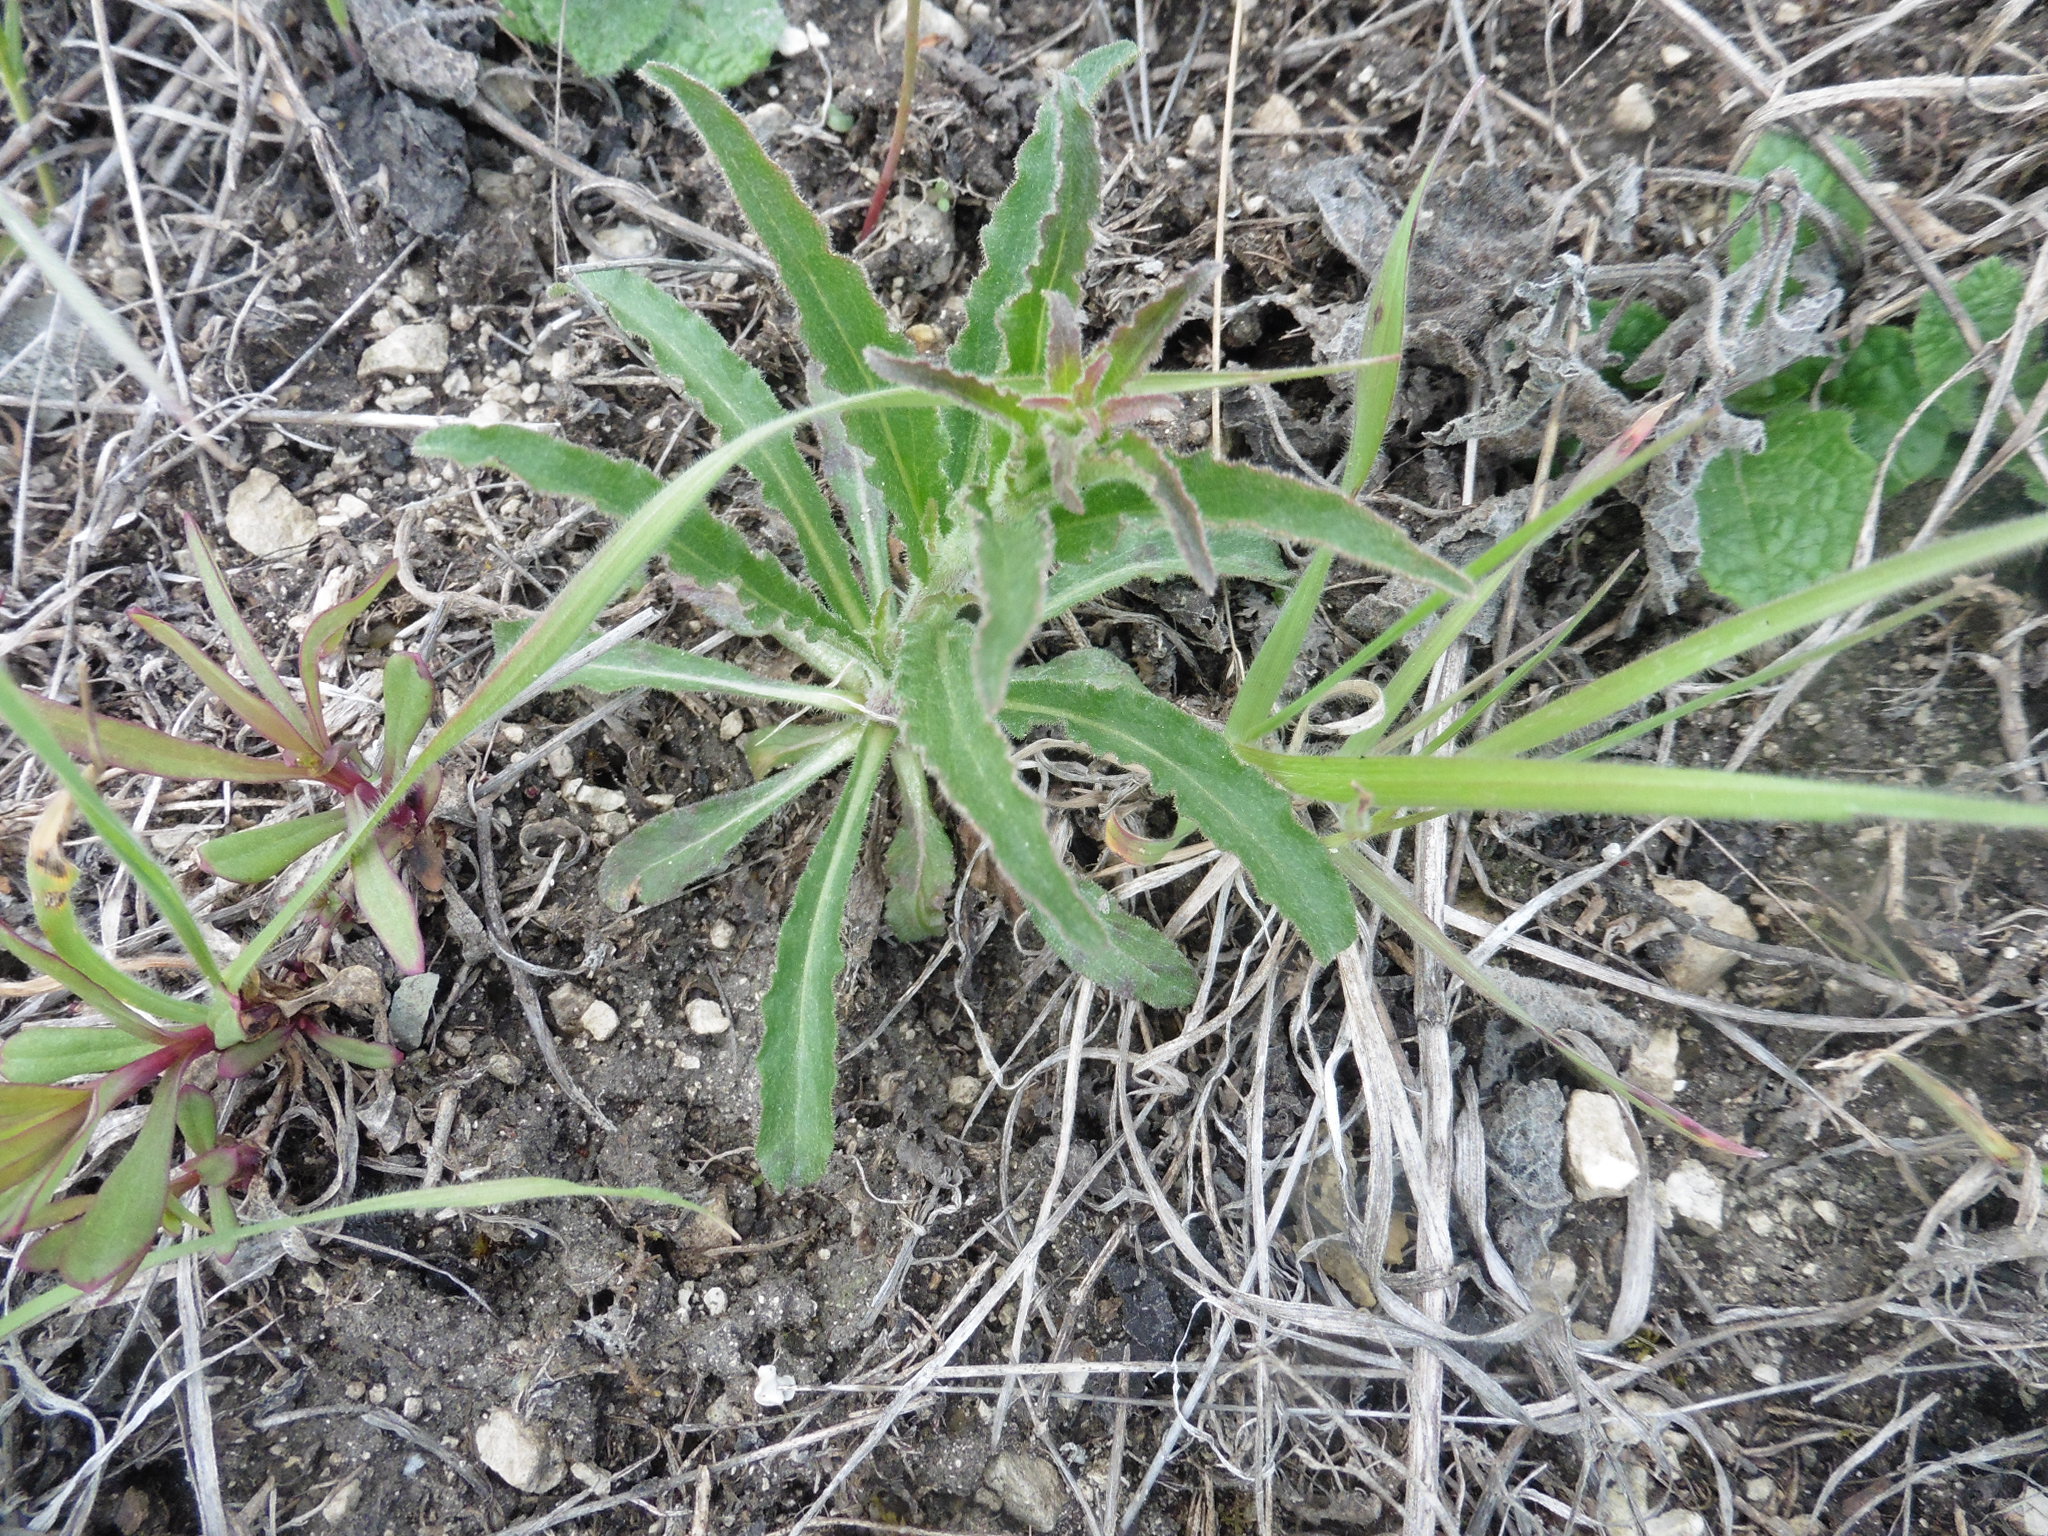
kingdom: Plantae
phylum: Tracheophyta
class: Magnoliopsida
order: Asterales
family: Campanulaceae
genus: Campanula
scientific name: Campanula sibirica
